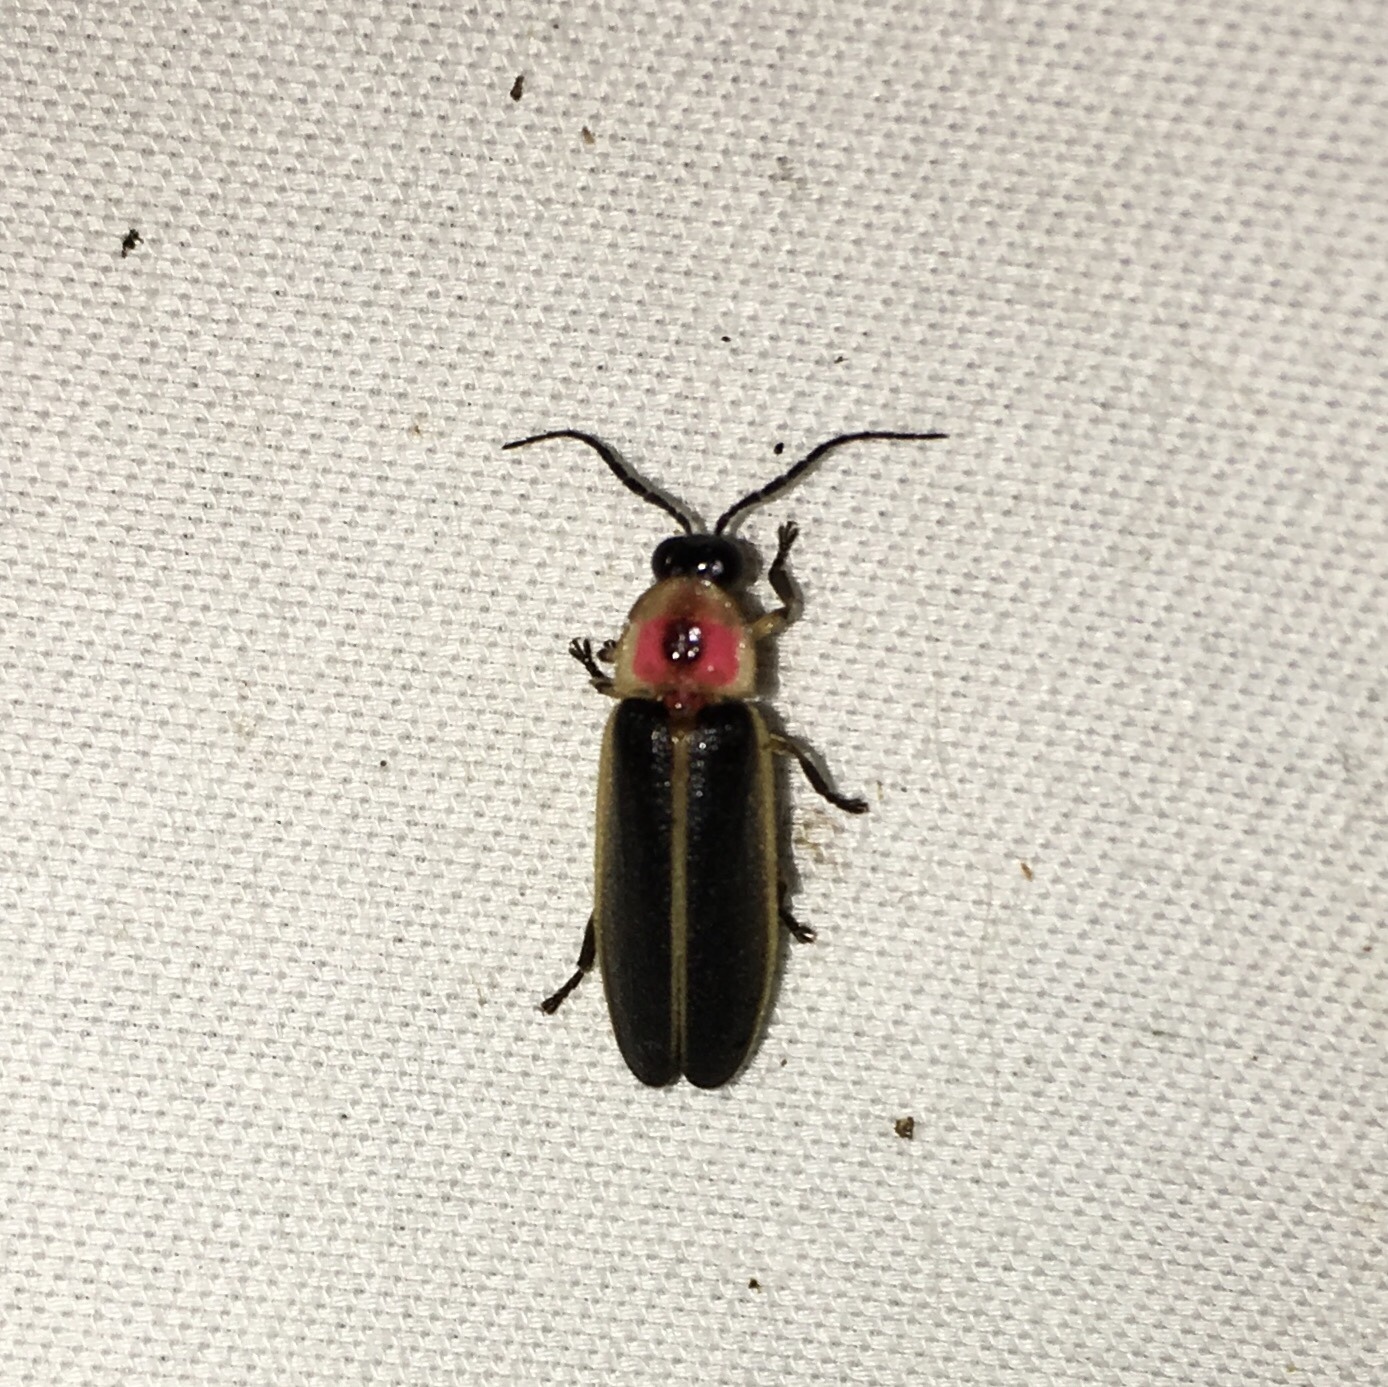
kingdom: Animalia
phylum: Arthropoda
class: Insecta
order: Coleoptera
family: Lampyridae
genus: Photinus
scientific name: Photinus pyralis
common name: Big dipper firefly
